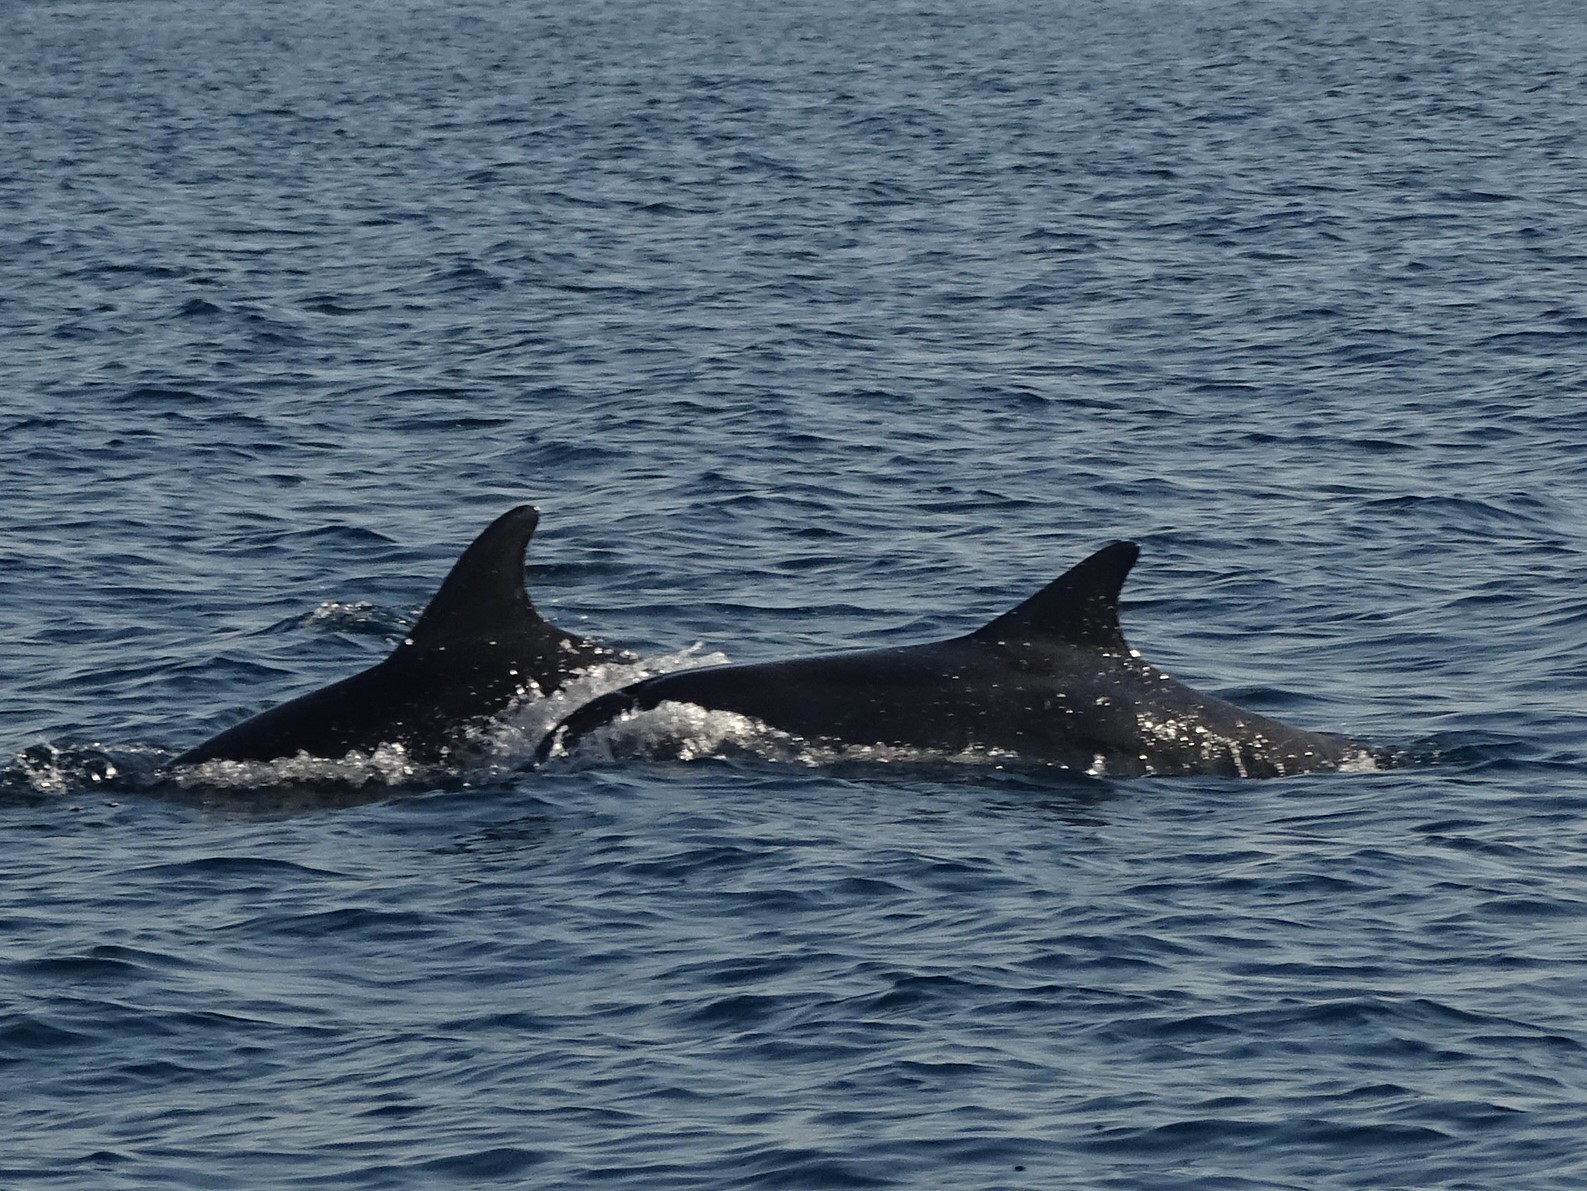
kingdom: Animalia
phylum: Chordata
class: Mammalia
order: Cetacea
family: Delphinidae
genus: Tursiops
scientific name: Tursiops truncatus
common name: Bottlenose dolphin
